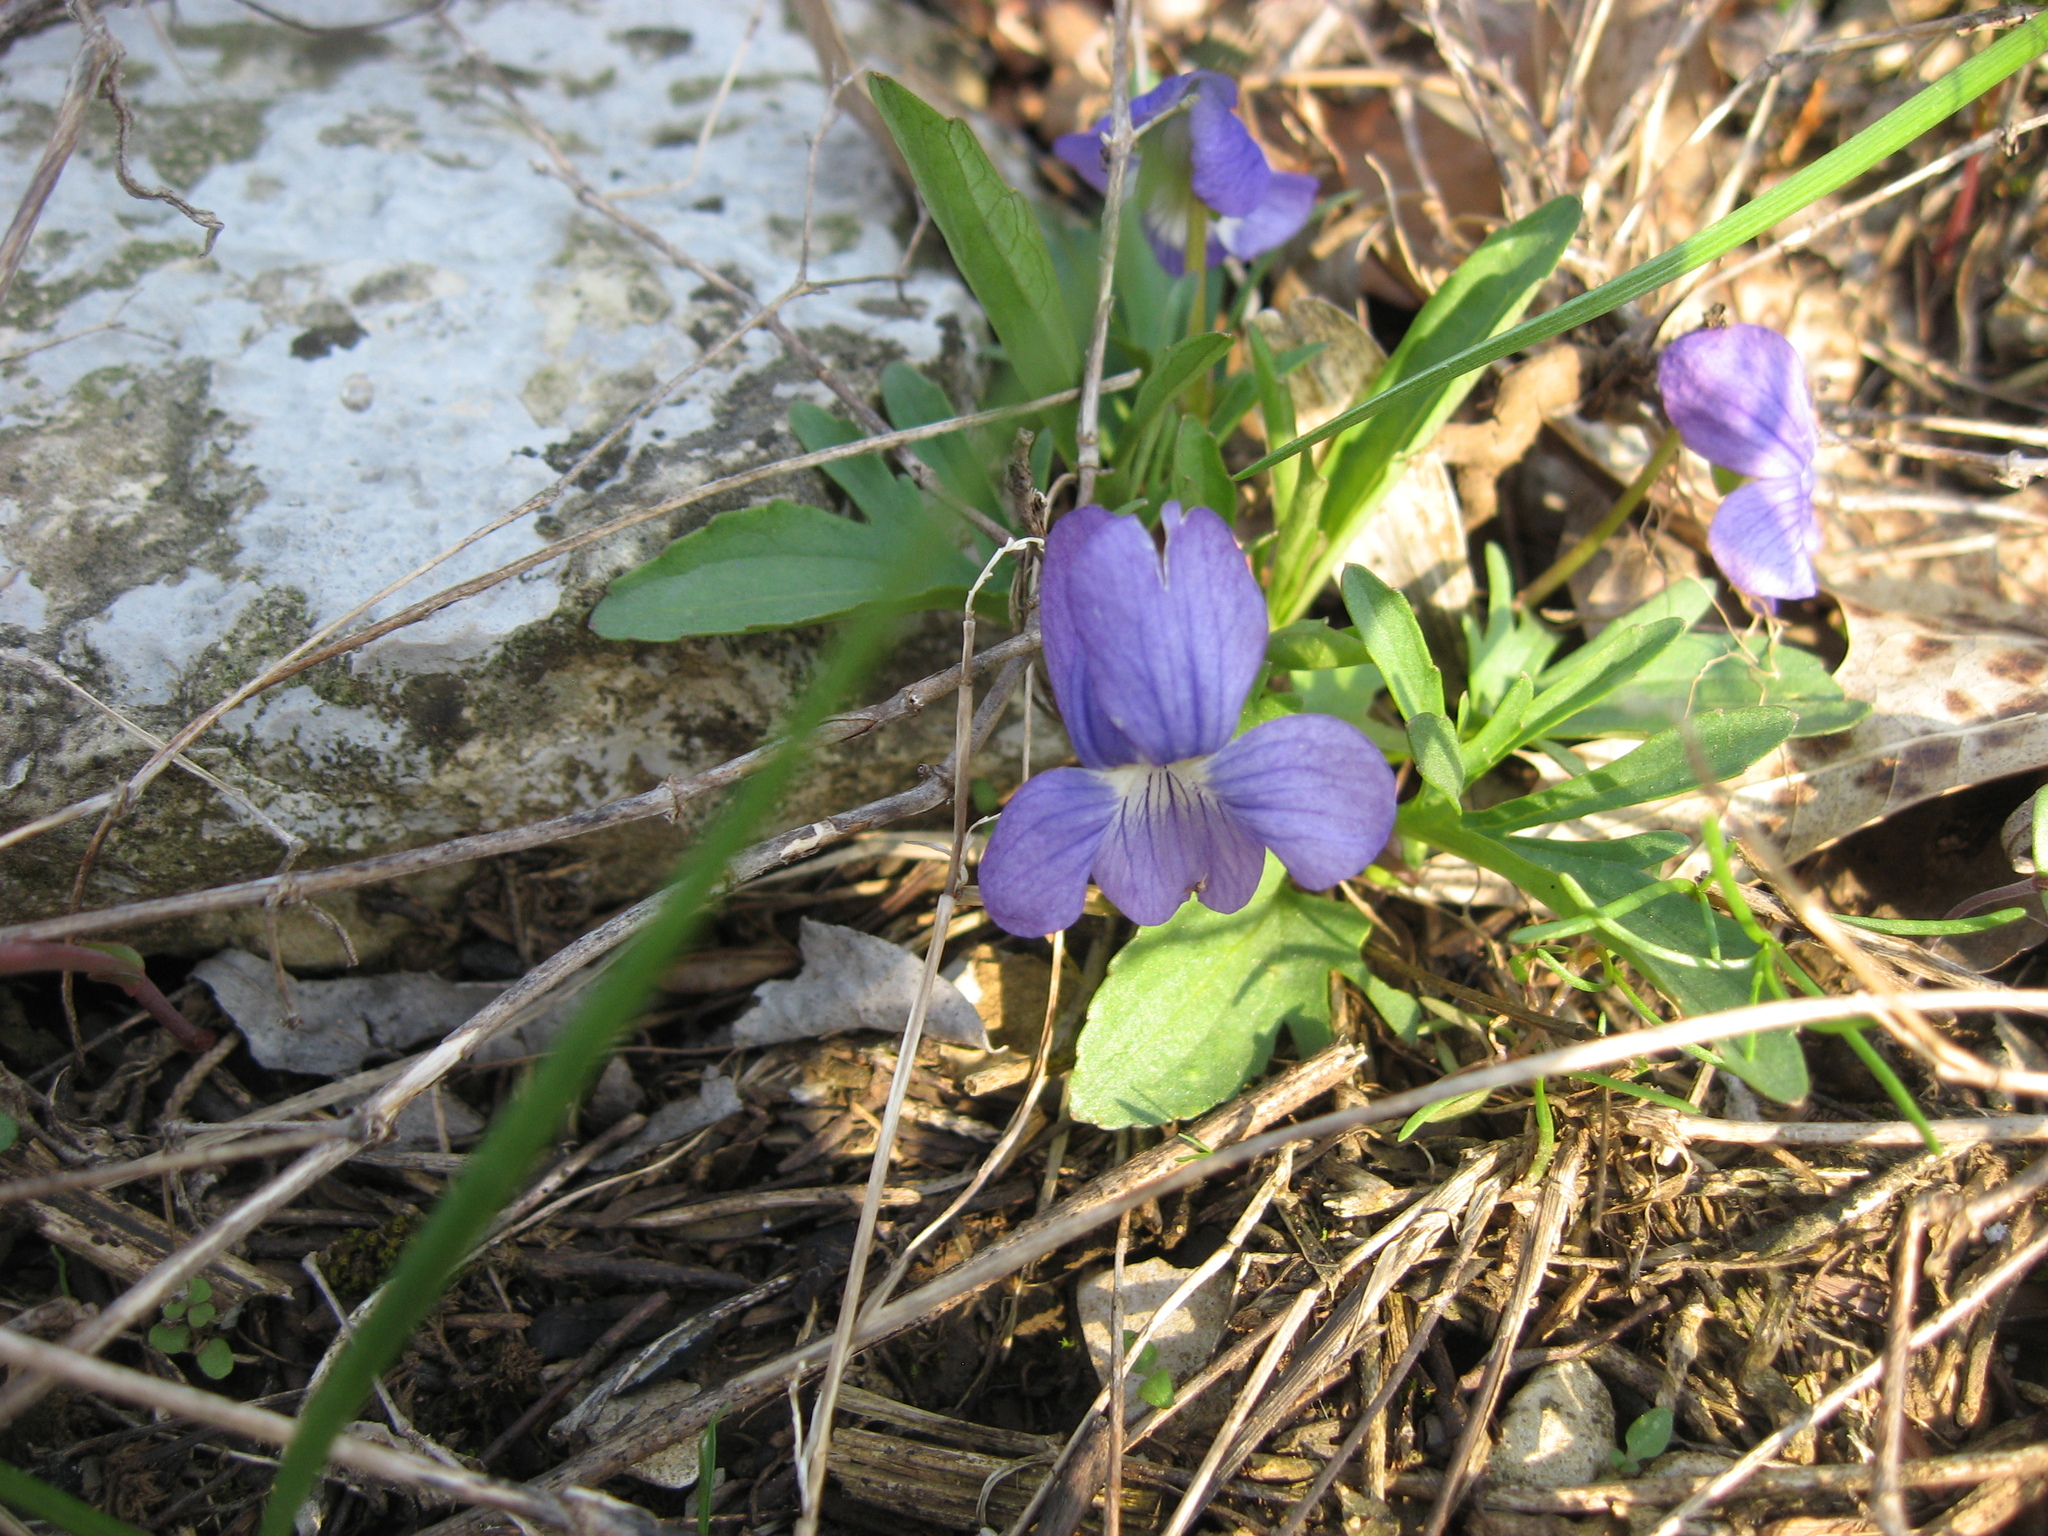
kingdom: Plantae
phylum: Tracheophyta
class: Magnoliopsida
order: Malpighiales
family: Violaceae
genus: Viola
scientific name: Viola egglestonii
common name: Glade violet
